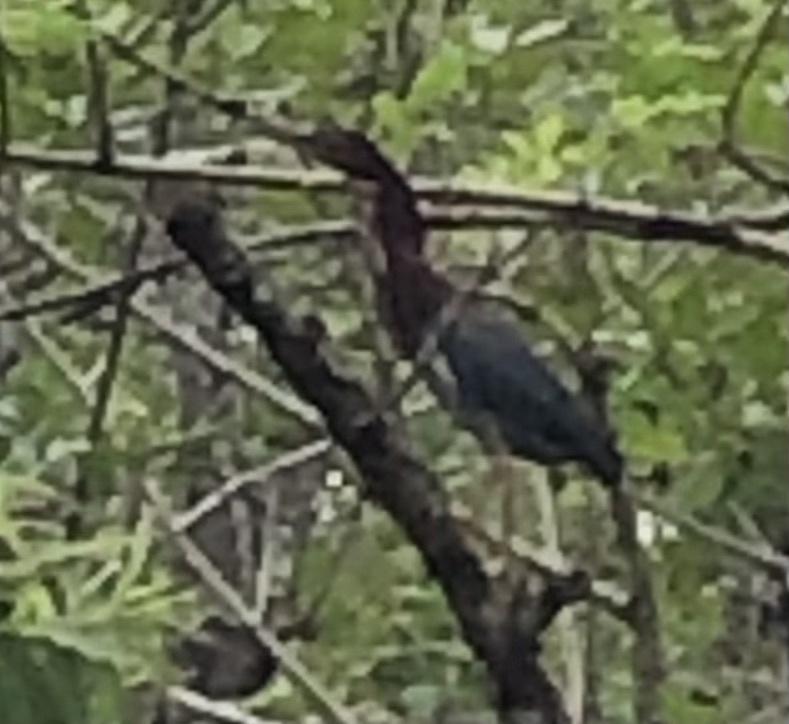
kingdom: Animalia
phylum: Chordata
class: Aves
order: Pelecaniformes
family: Ardeidae
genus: Butorides
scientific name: Butorides virescens
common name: Green heron
